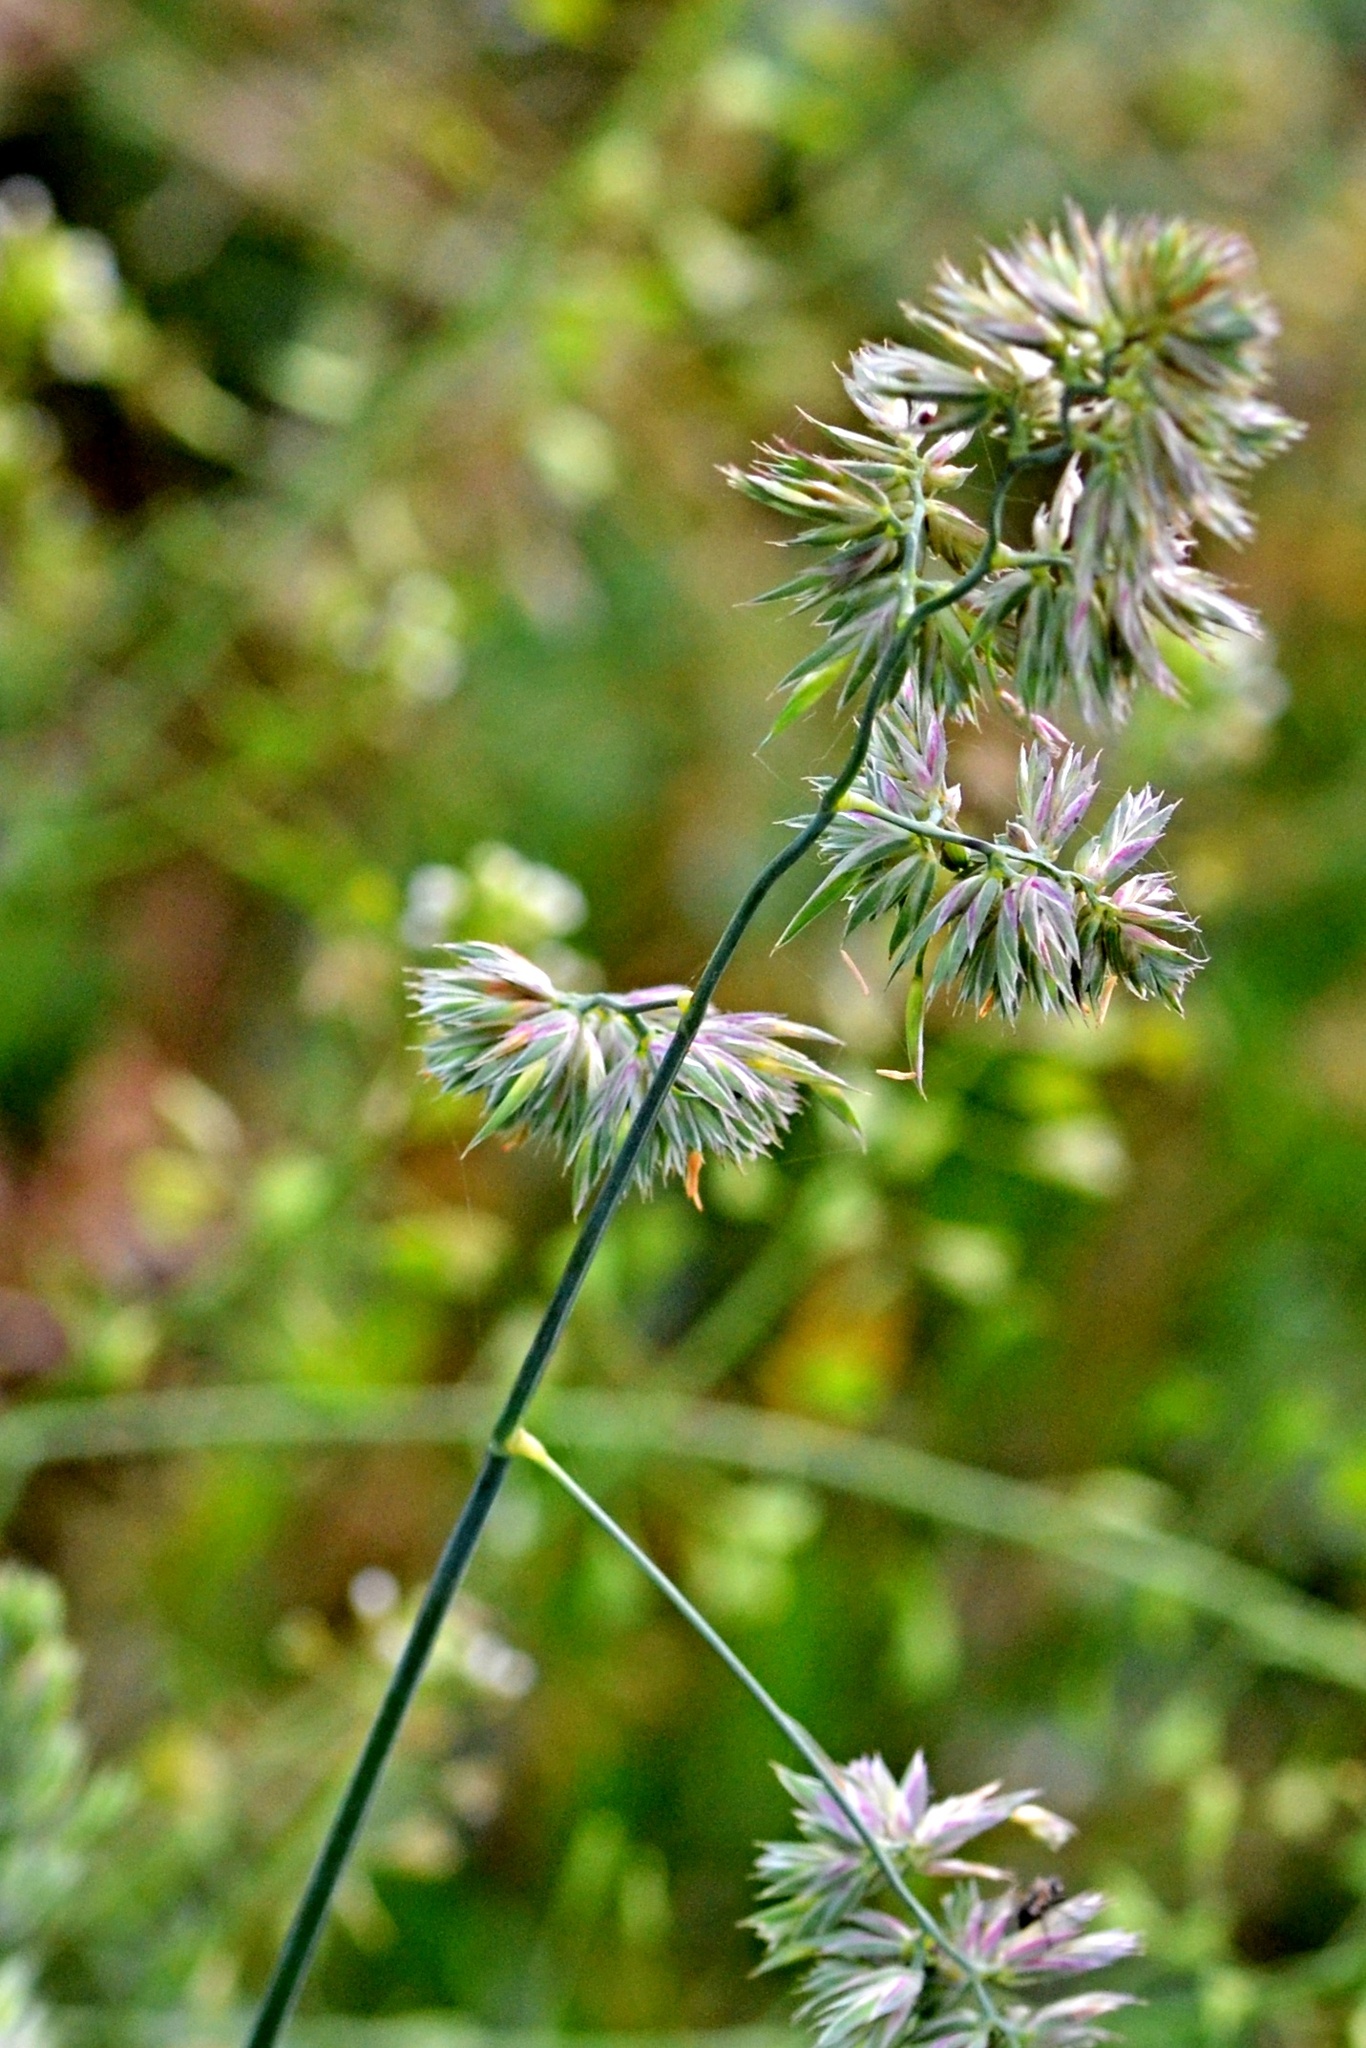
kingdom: Plantae
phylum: Tracheophyta
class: Liliopsida
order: Poales
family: Poaceae
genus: Dactylis
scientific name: Dactylis glomerata
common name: Orchardgrass
